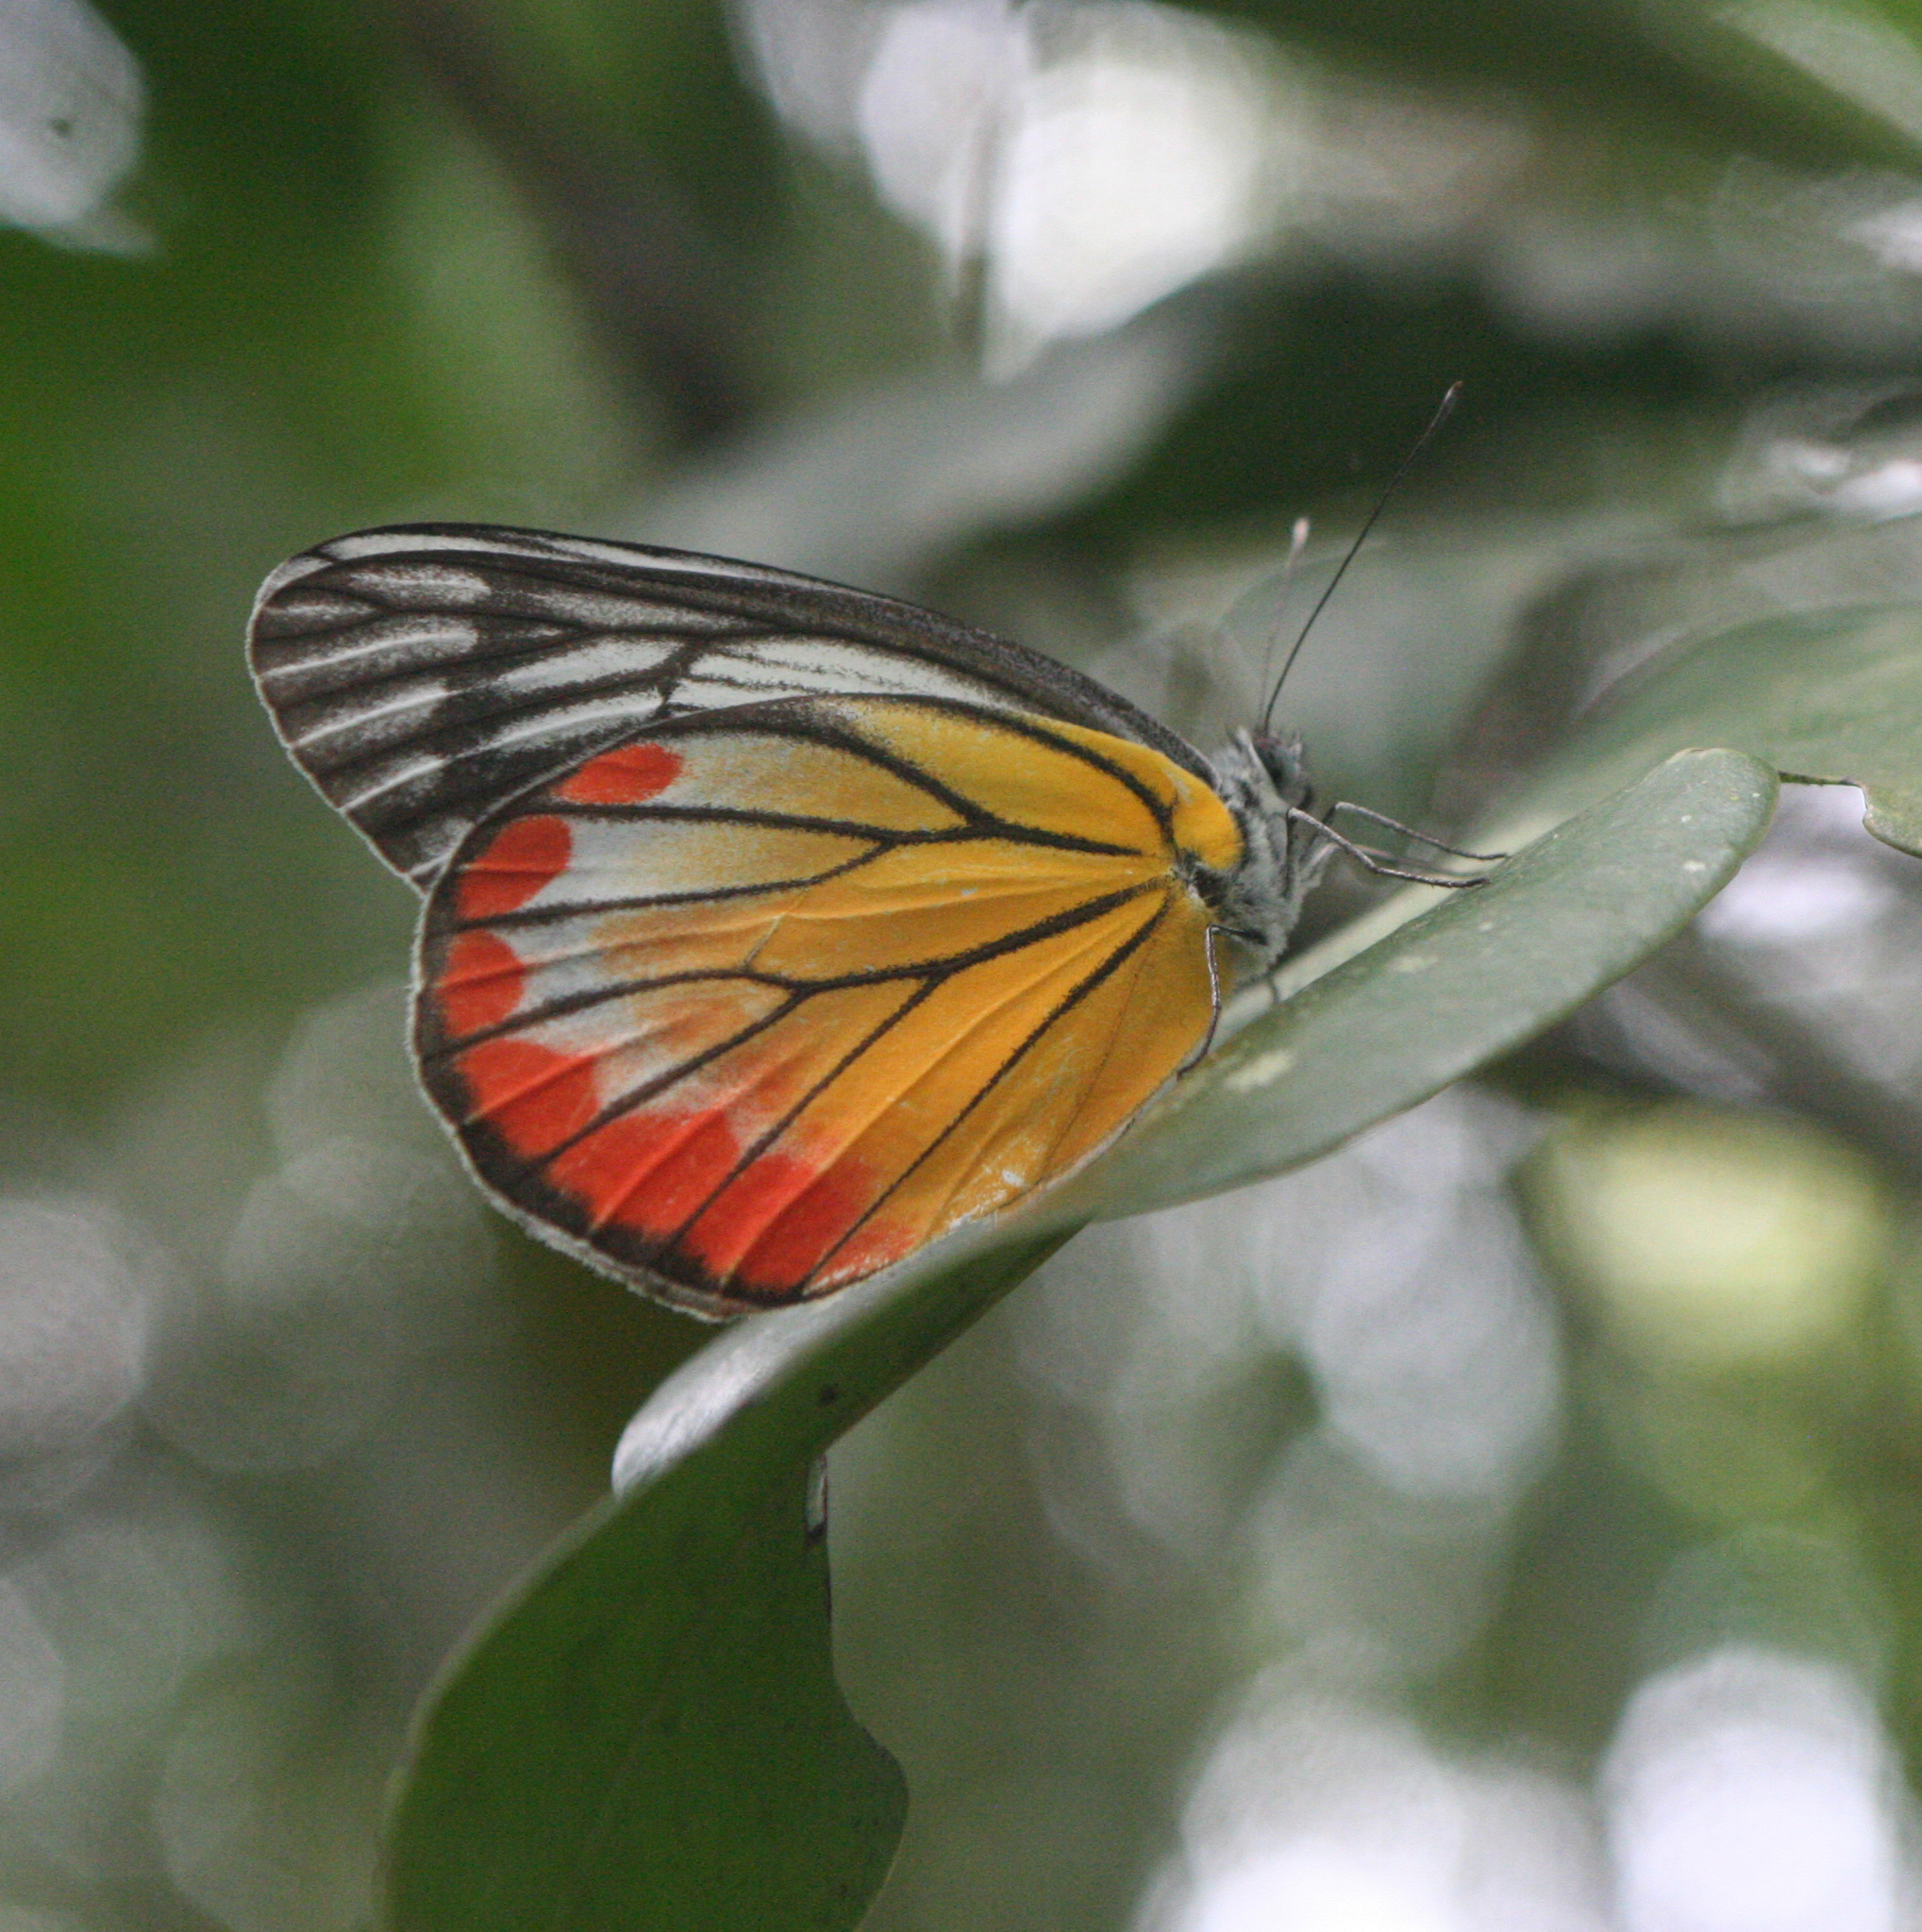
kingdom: Animalia
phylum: Arthropoda
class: Insecta
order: Lepidoptera
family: Pieridae
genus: Delias
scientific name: Delias hyparete
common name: Painted jezebel
